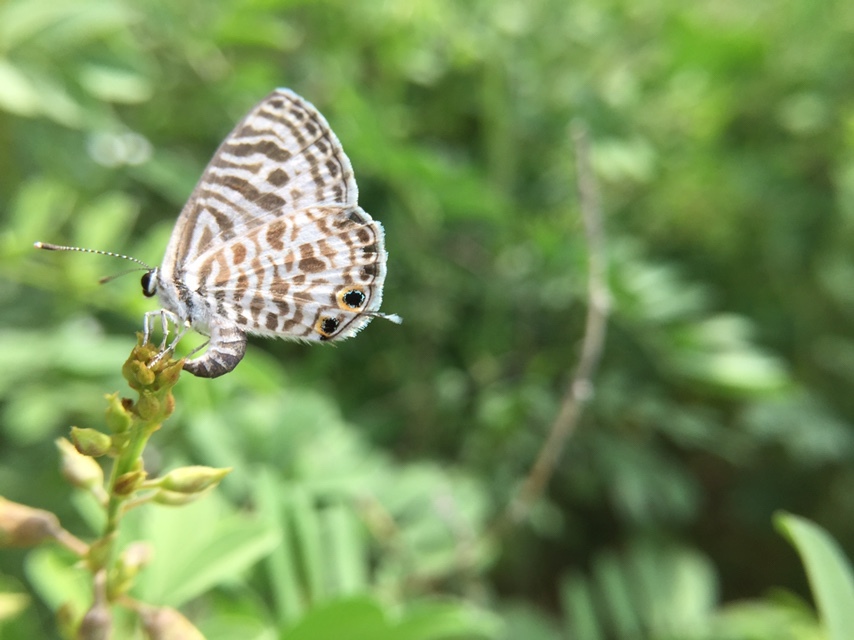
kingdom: Animalia
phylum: Arthropoda
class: Insecta
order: Lepidoptera
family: Lycaenidae
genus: Leptotes
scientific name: Leptotes plinius
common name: Zebra blue
